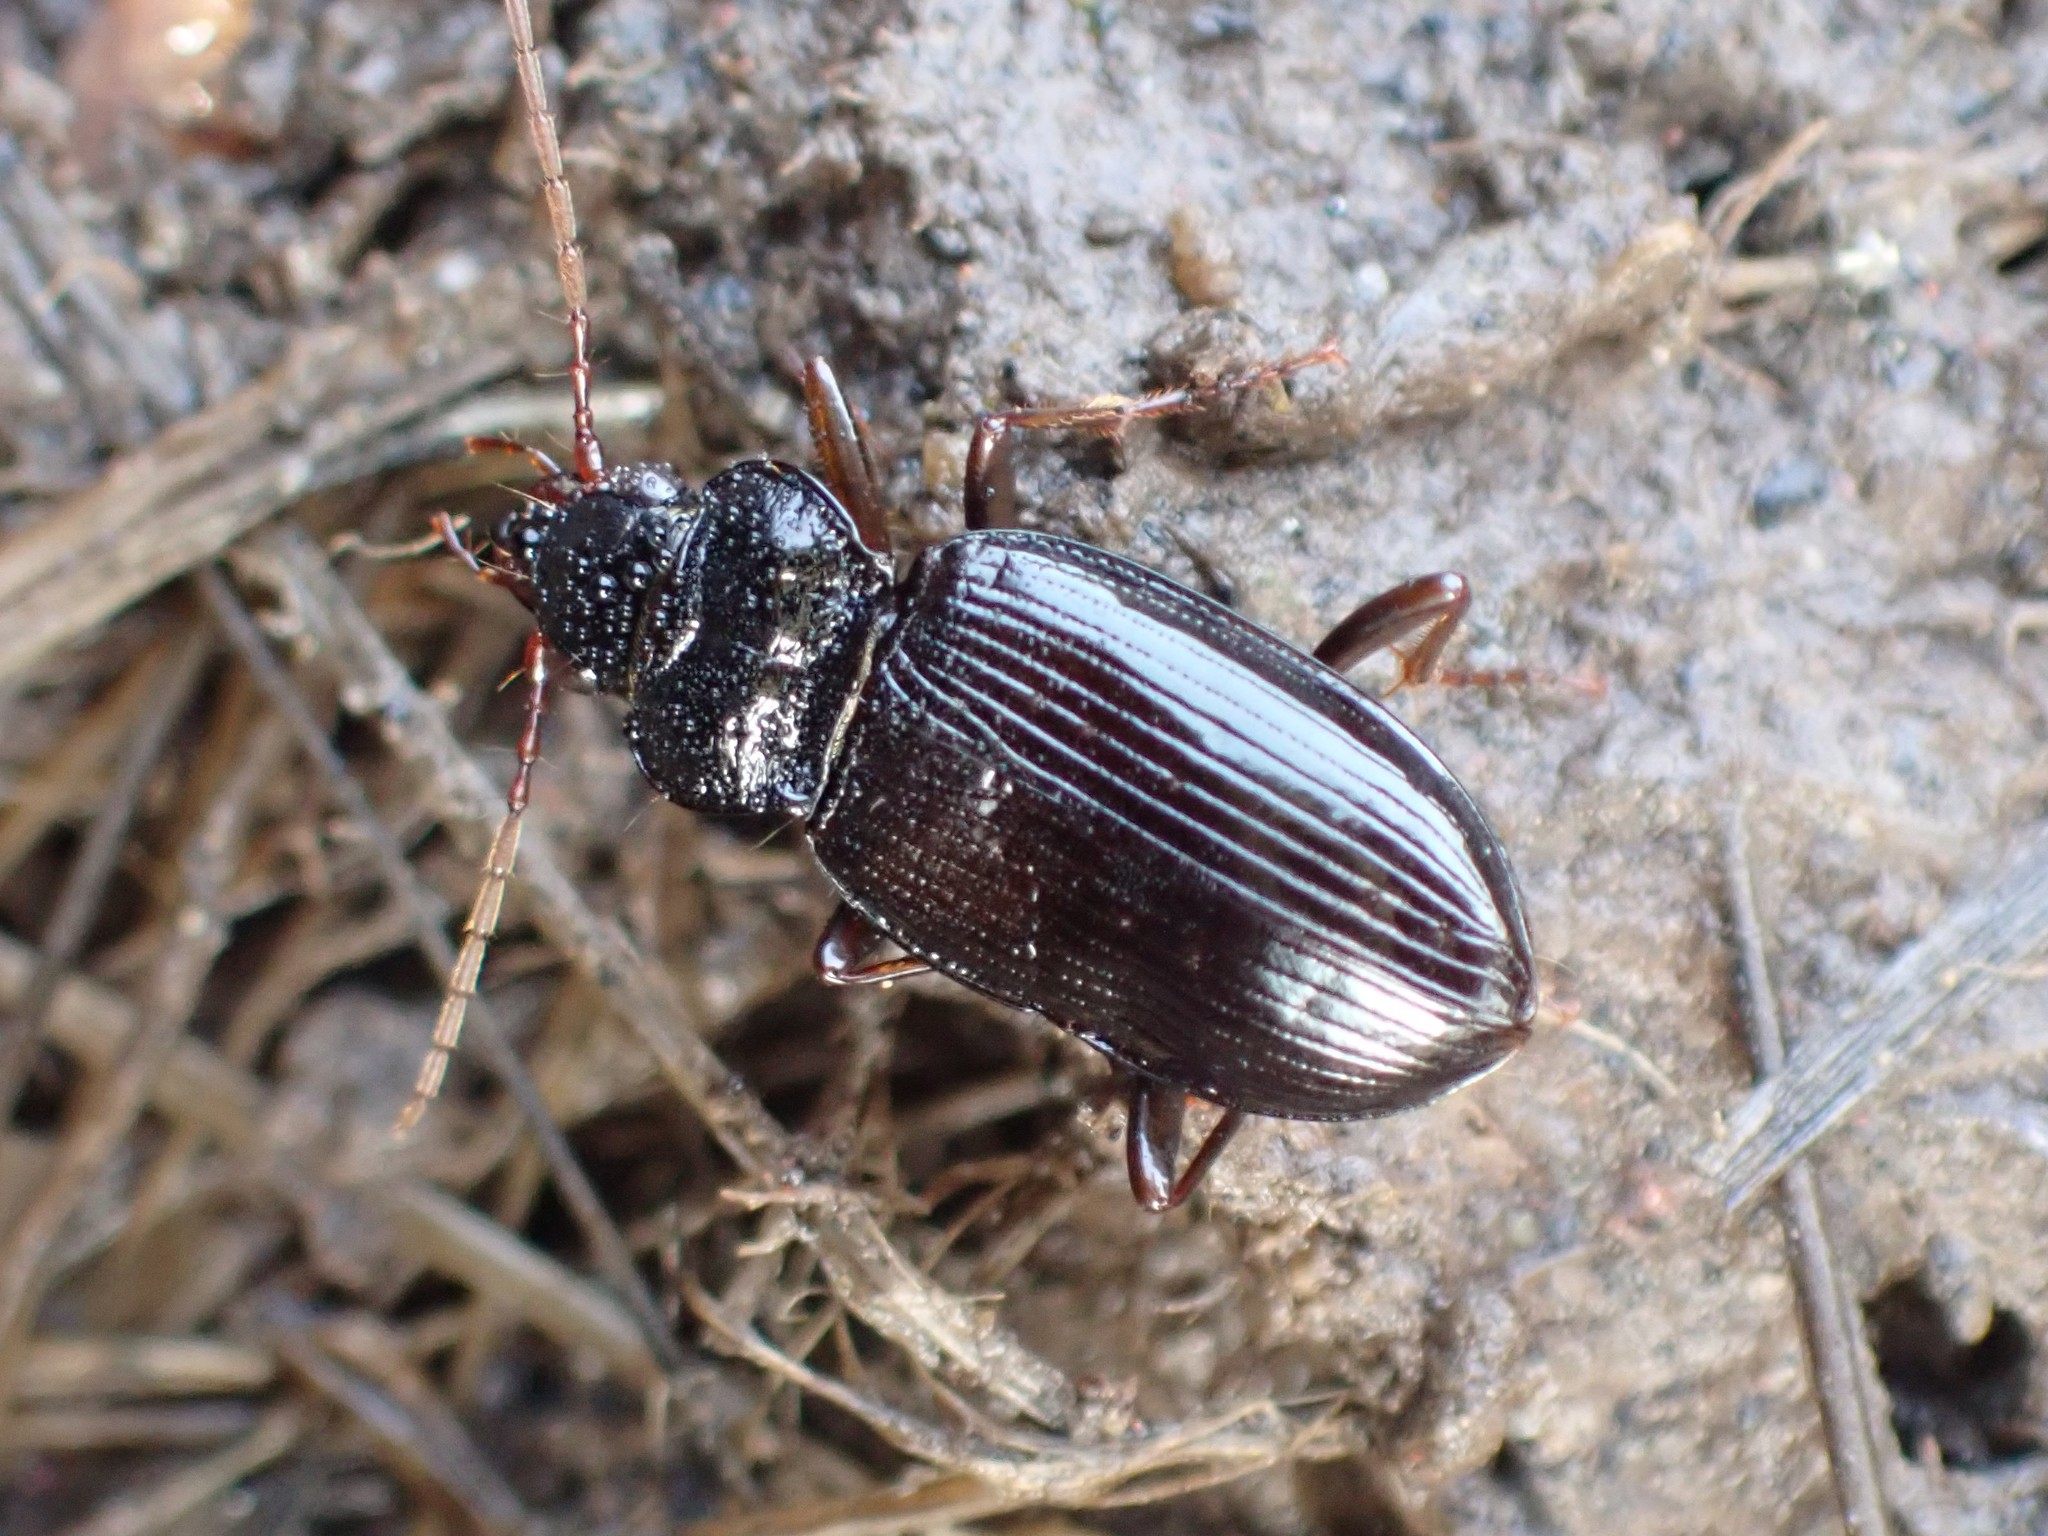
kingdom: Animalia
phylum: Arthropoda
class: Insecta
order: Coleoptera
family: Carabidae
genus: Nebria
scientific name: Nebria brevicollis
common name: Short-necked gazelle beetle
